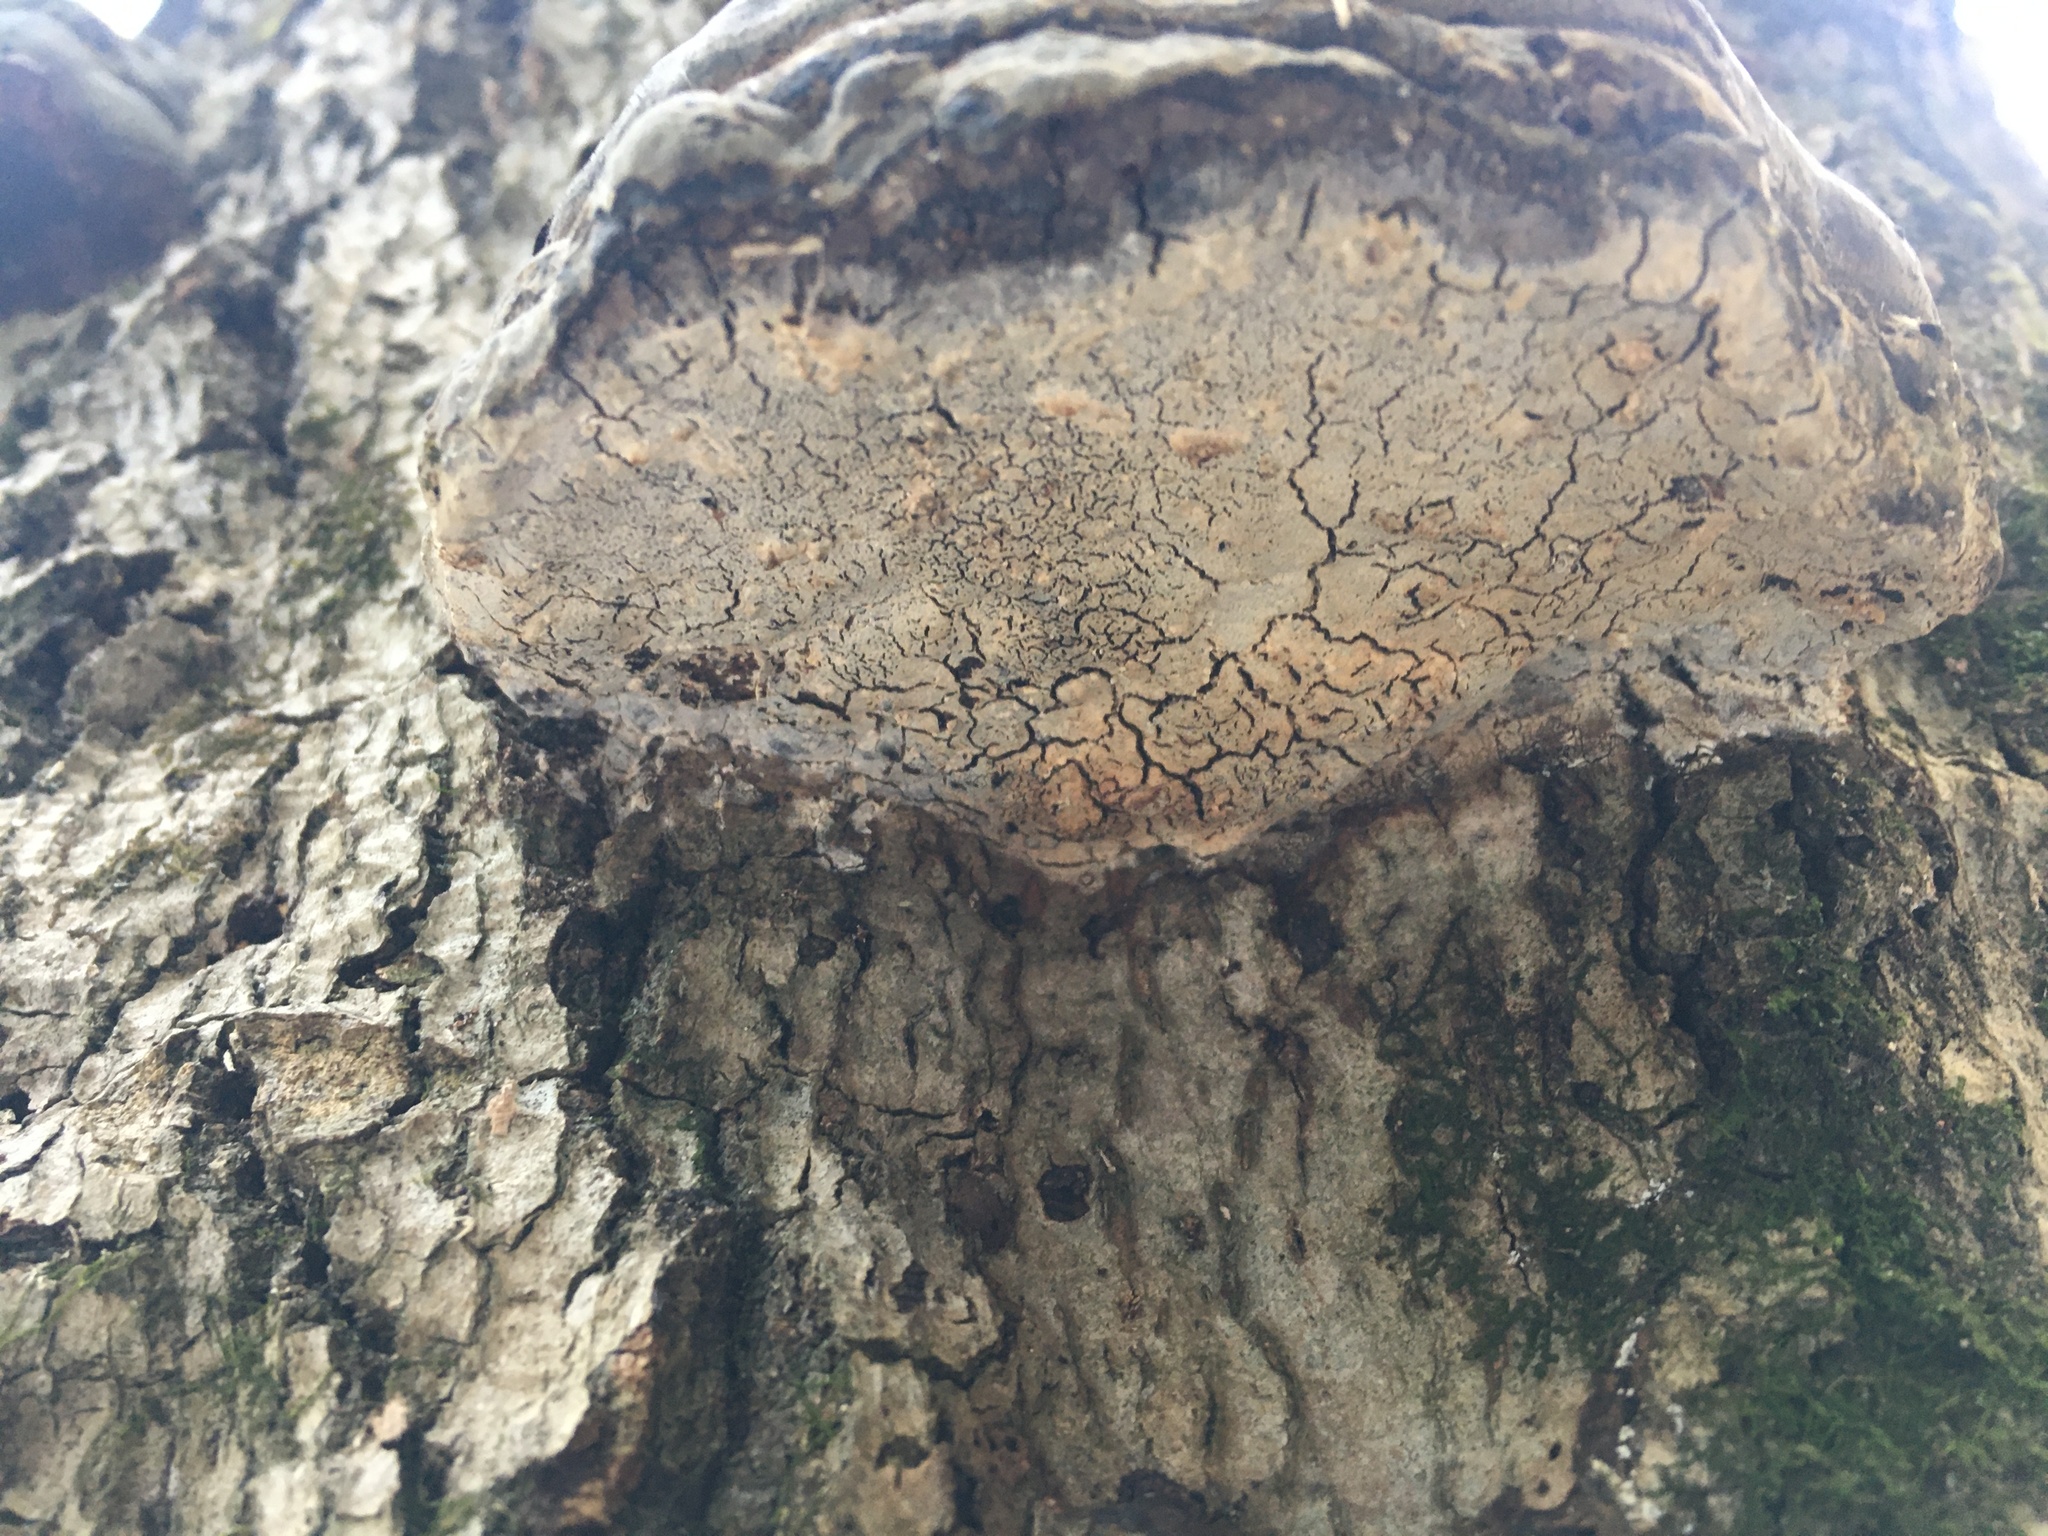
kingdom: Fungi
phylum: Basidiomycota
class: Agaricomycetes
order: Polyporales
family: Polyporaceae
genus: Fomes
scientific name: Fomes fomentarius
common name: Hoof fungus
